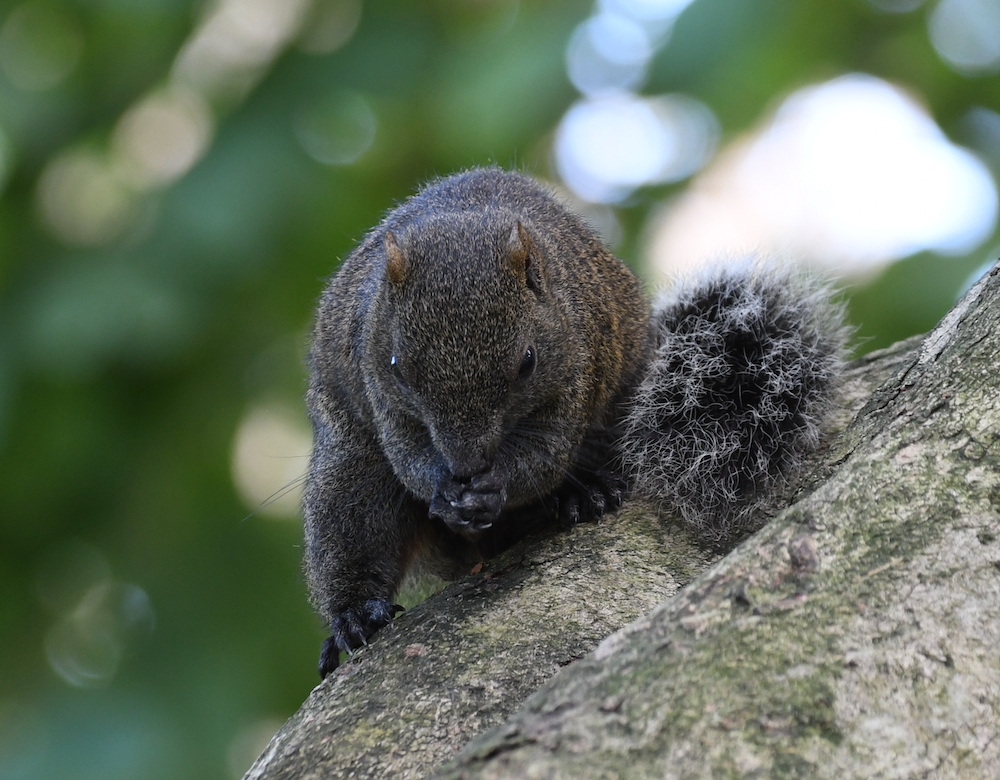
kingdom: Animalia
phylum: Chordata
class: Mammalia
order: Rodentia
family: Sciuridae
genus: Callosciurus
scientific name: Callosciurus erythraeus
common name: Pallas's squirrel
